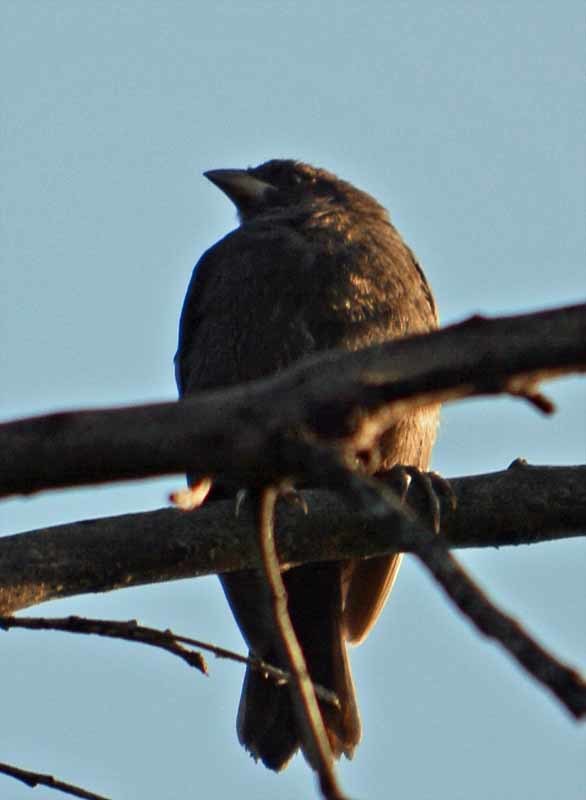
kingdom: Animalia
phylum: Chordata
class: Aves
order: Passeriformes
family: Icteridae
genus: Molothrus
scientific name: Molothrus aeneus
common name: Bronzed cowbird
